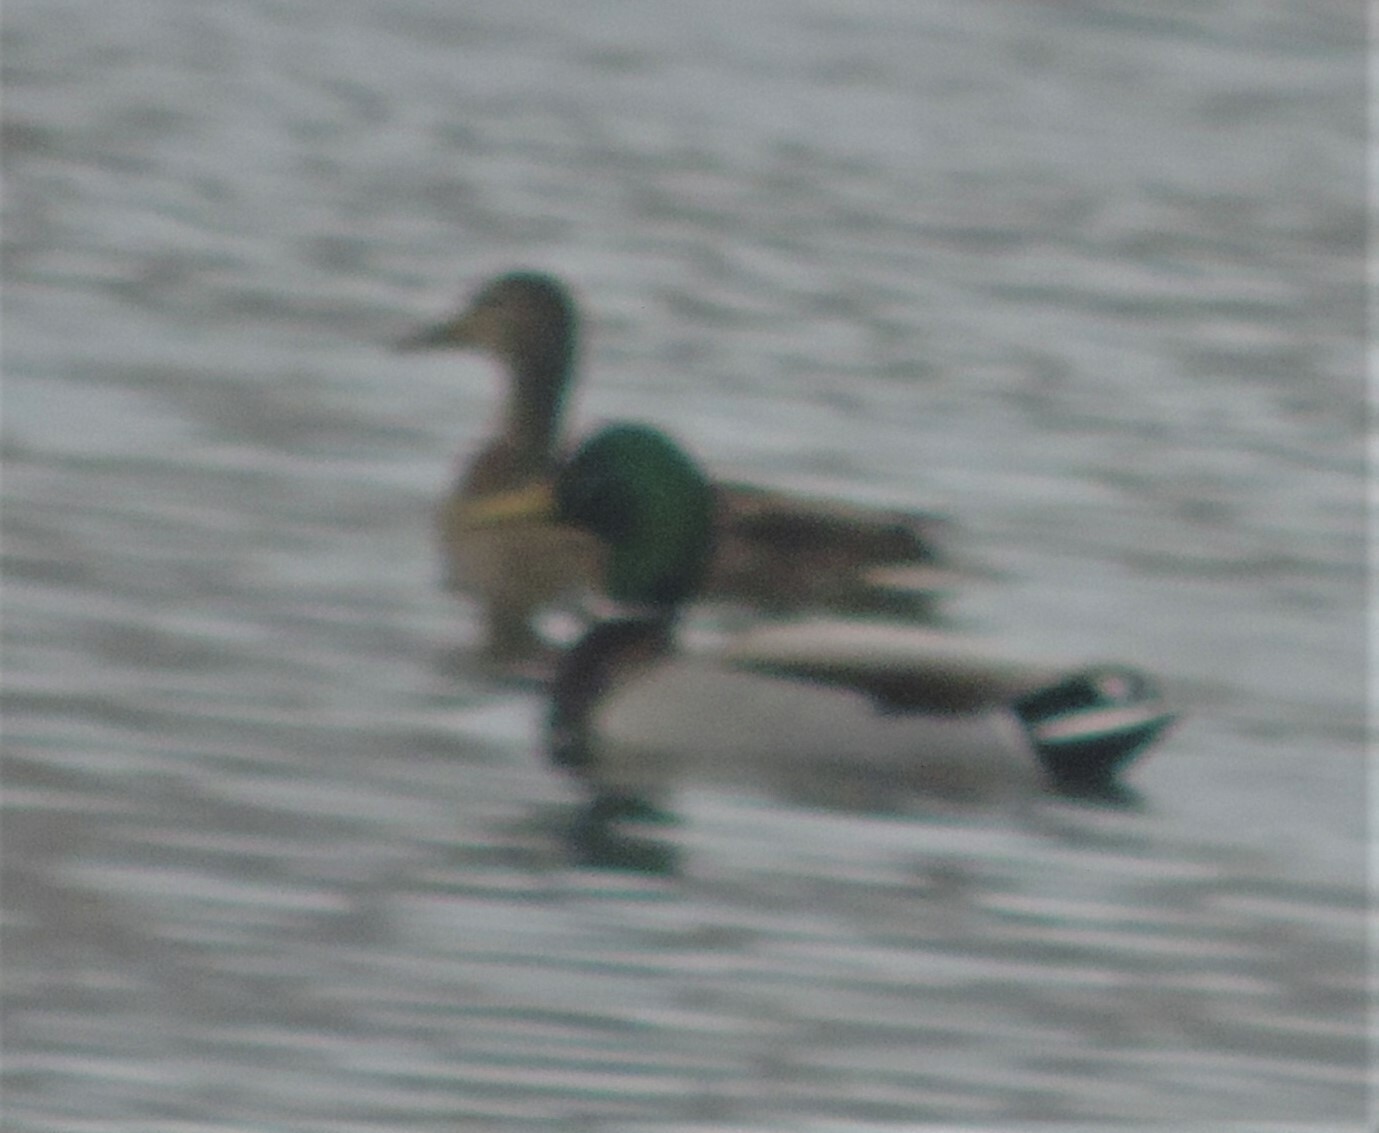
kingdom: Animalia
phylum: Chordata
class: Aves
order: Anseriformes
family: Anatidae
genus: Anas
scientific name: Anas platyrhynchos
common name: Mallard
